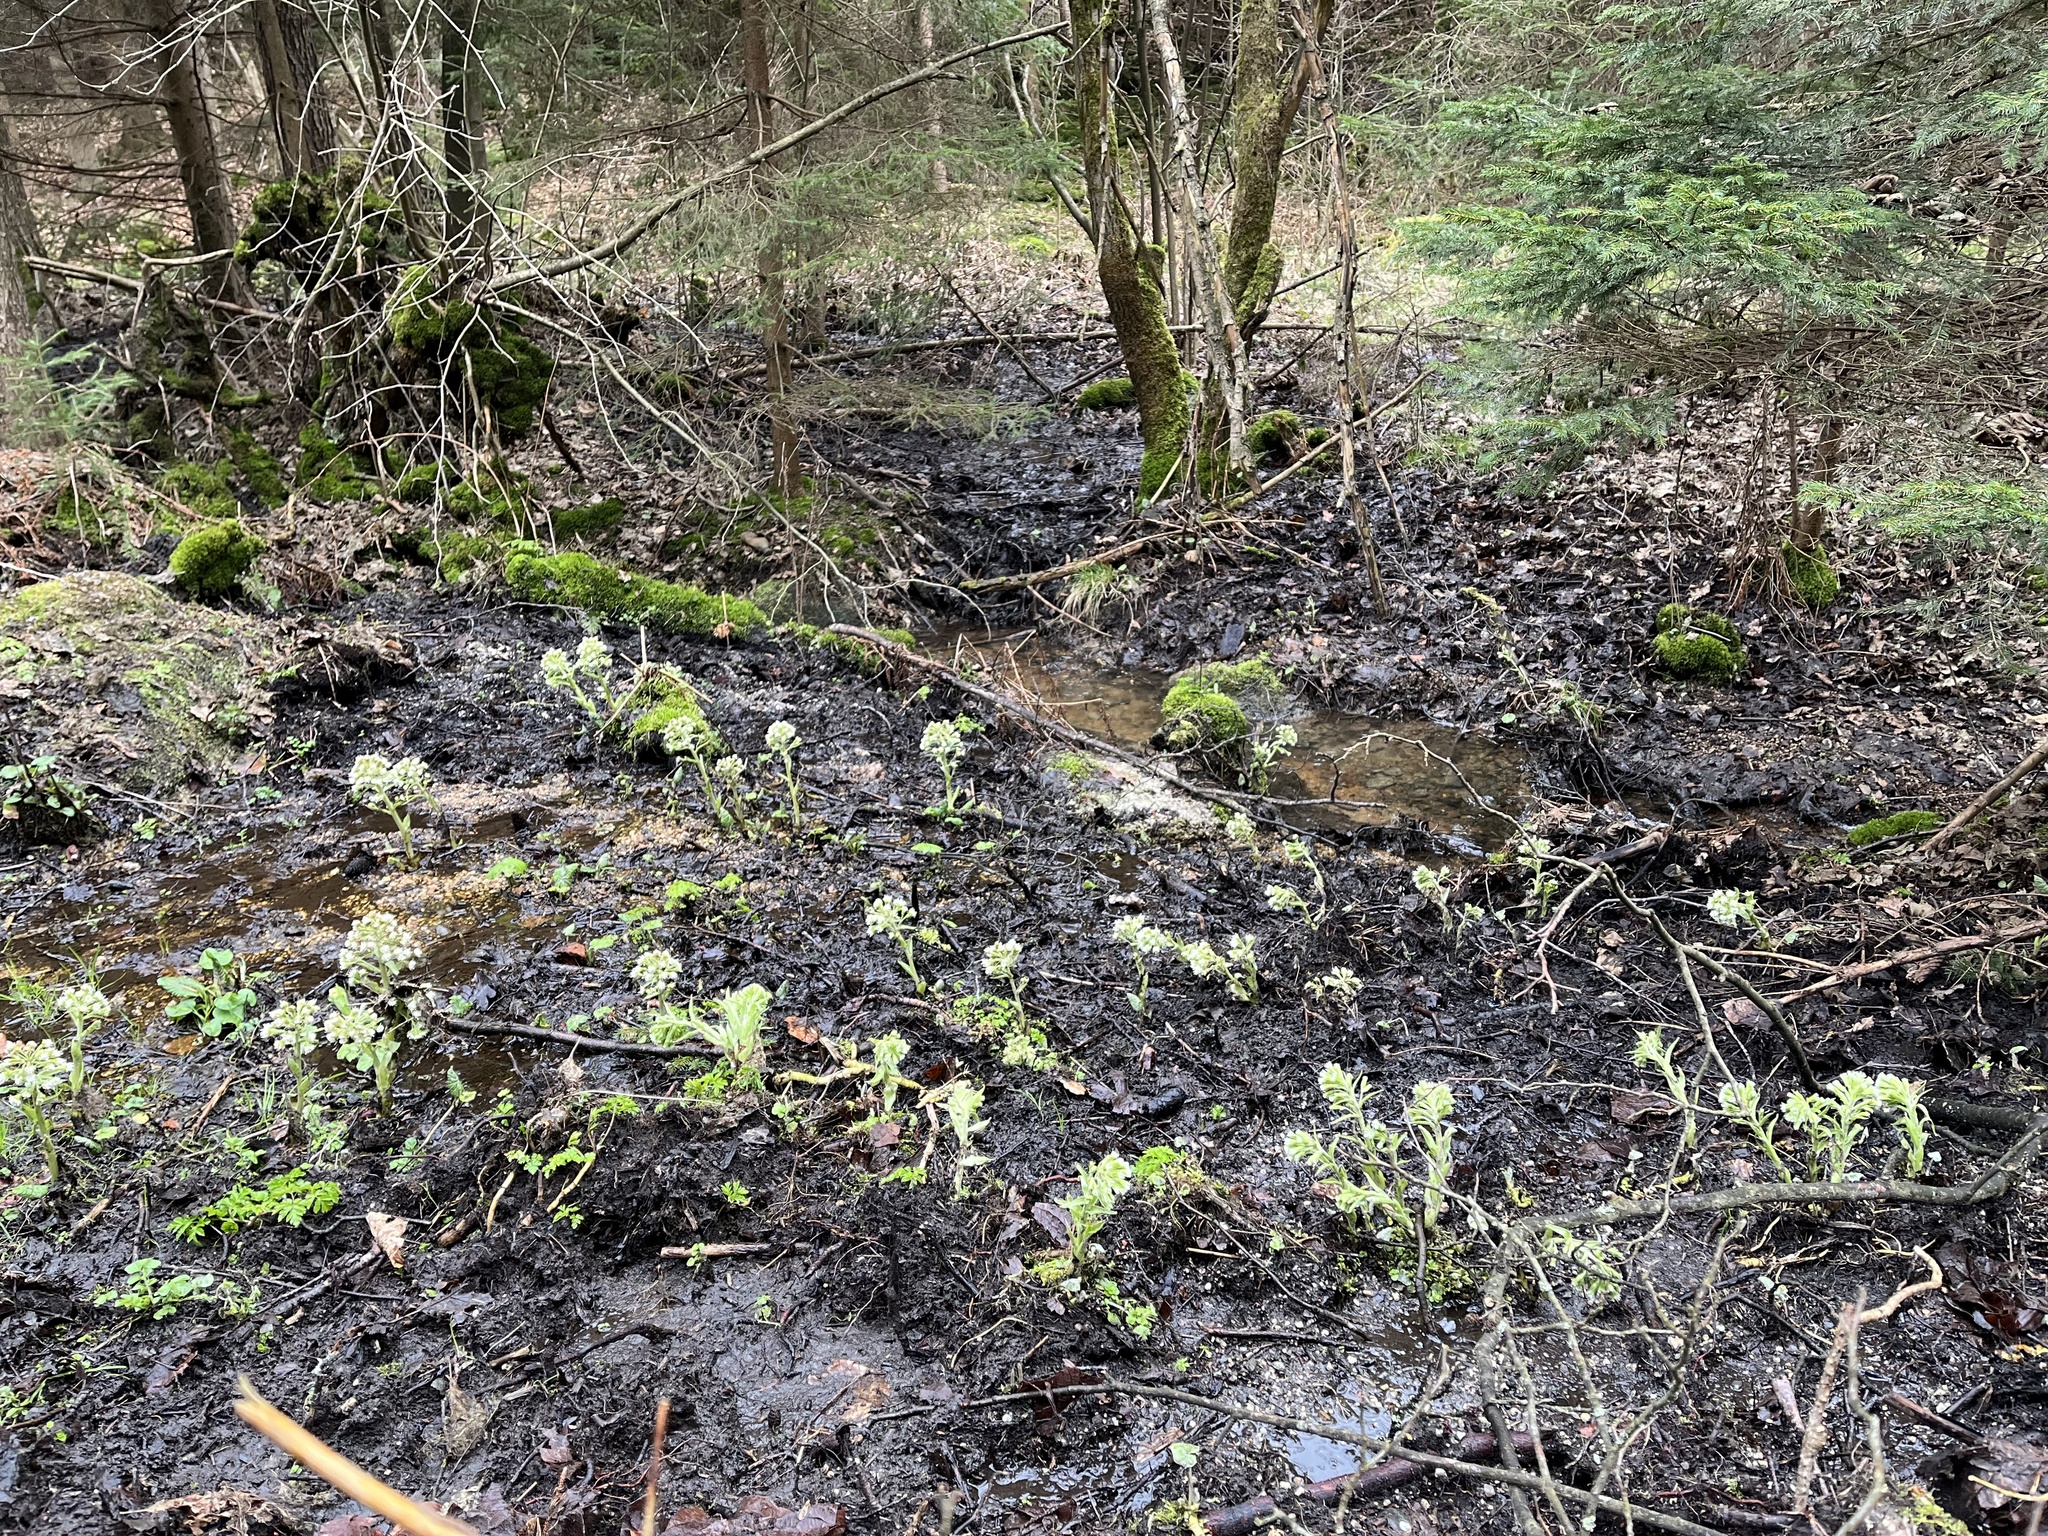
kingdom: Plantae
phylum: Tracheophyta
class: Magnoliopsida
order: Asterales
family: Asteraceae
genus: Petasites
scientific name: Petasites albus
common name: White butterbur
